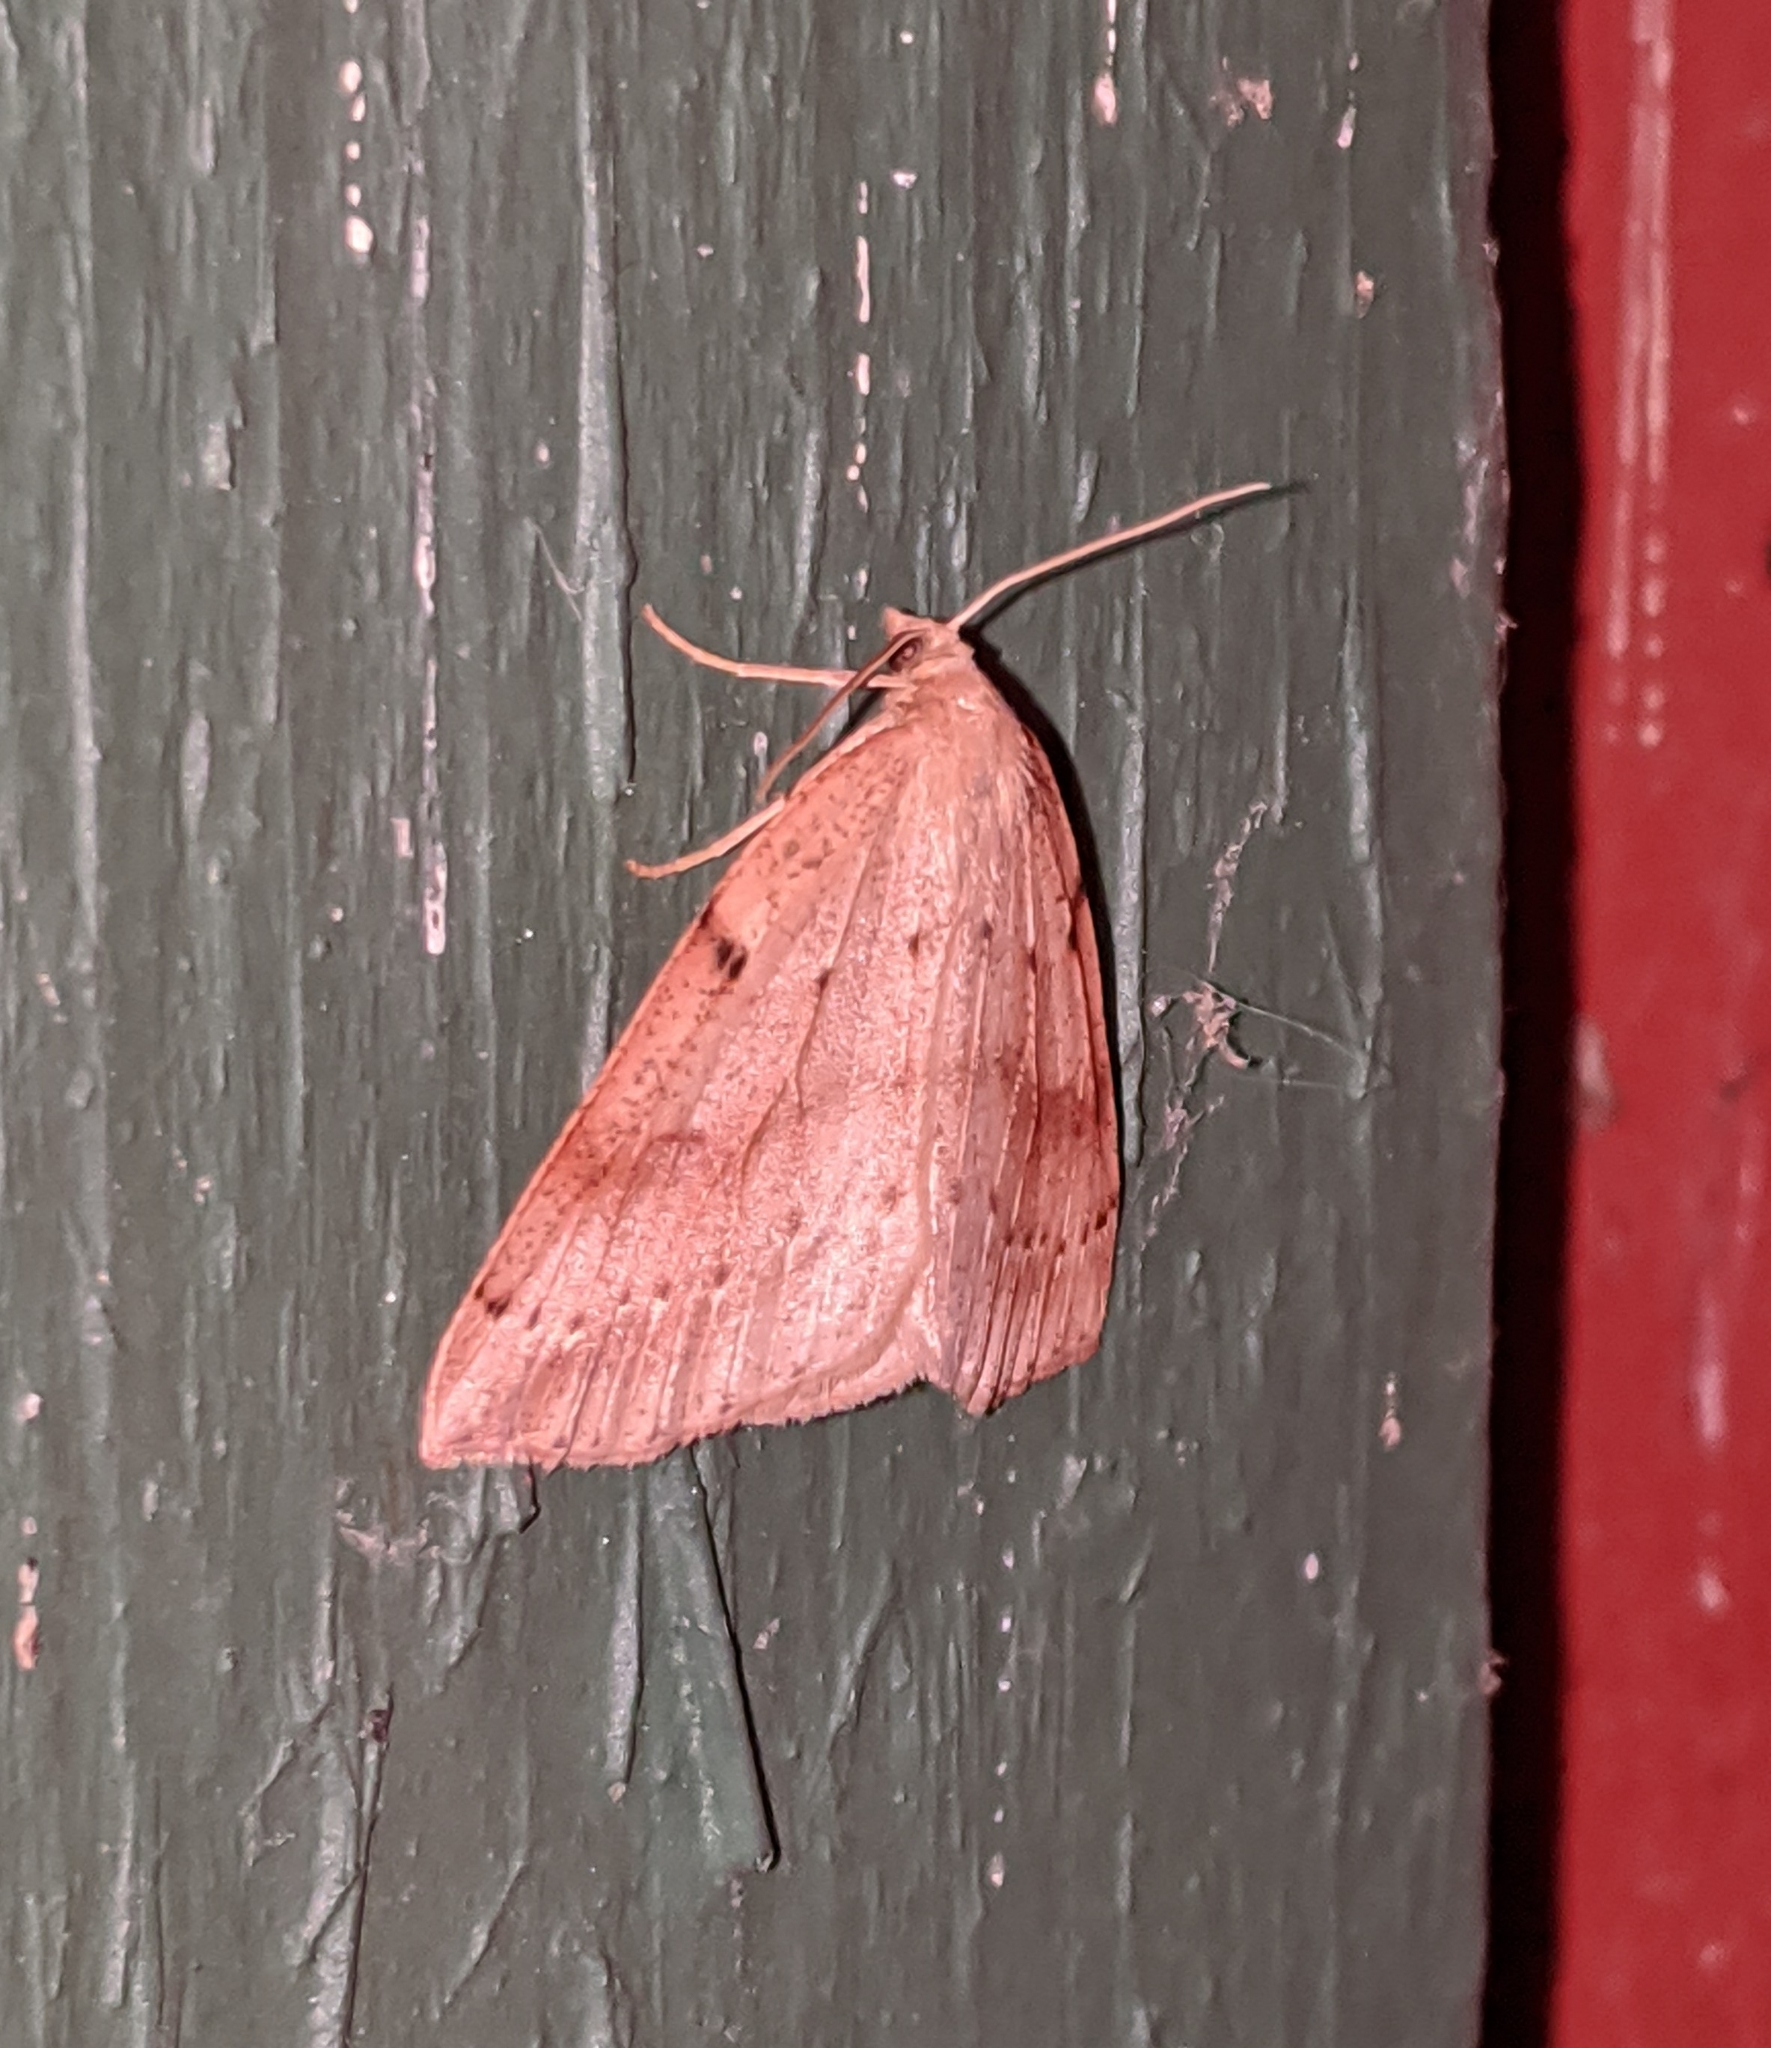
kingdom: Animalia
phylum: Arthropoda
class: Insecta
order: Lepidoptera
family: Geometridae
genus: Thallophaga
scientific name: Thallophaga hyperborea
